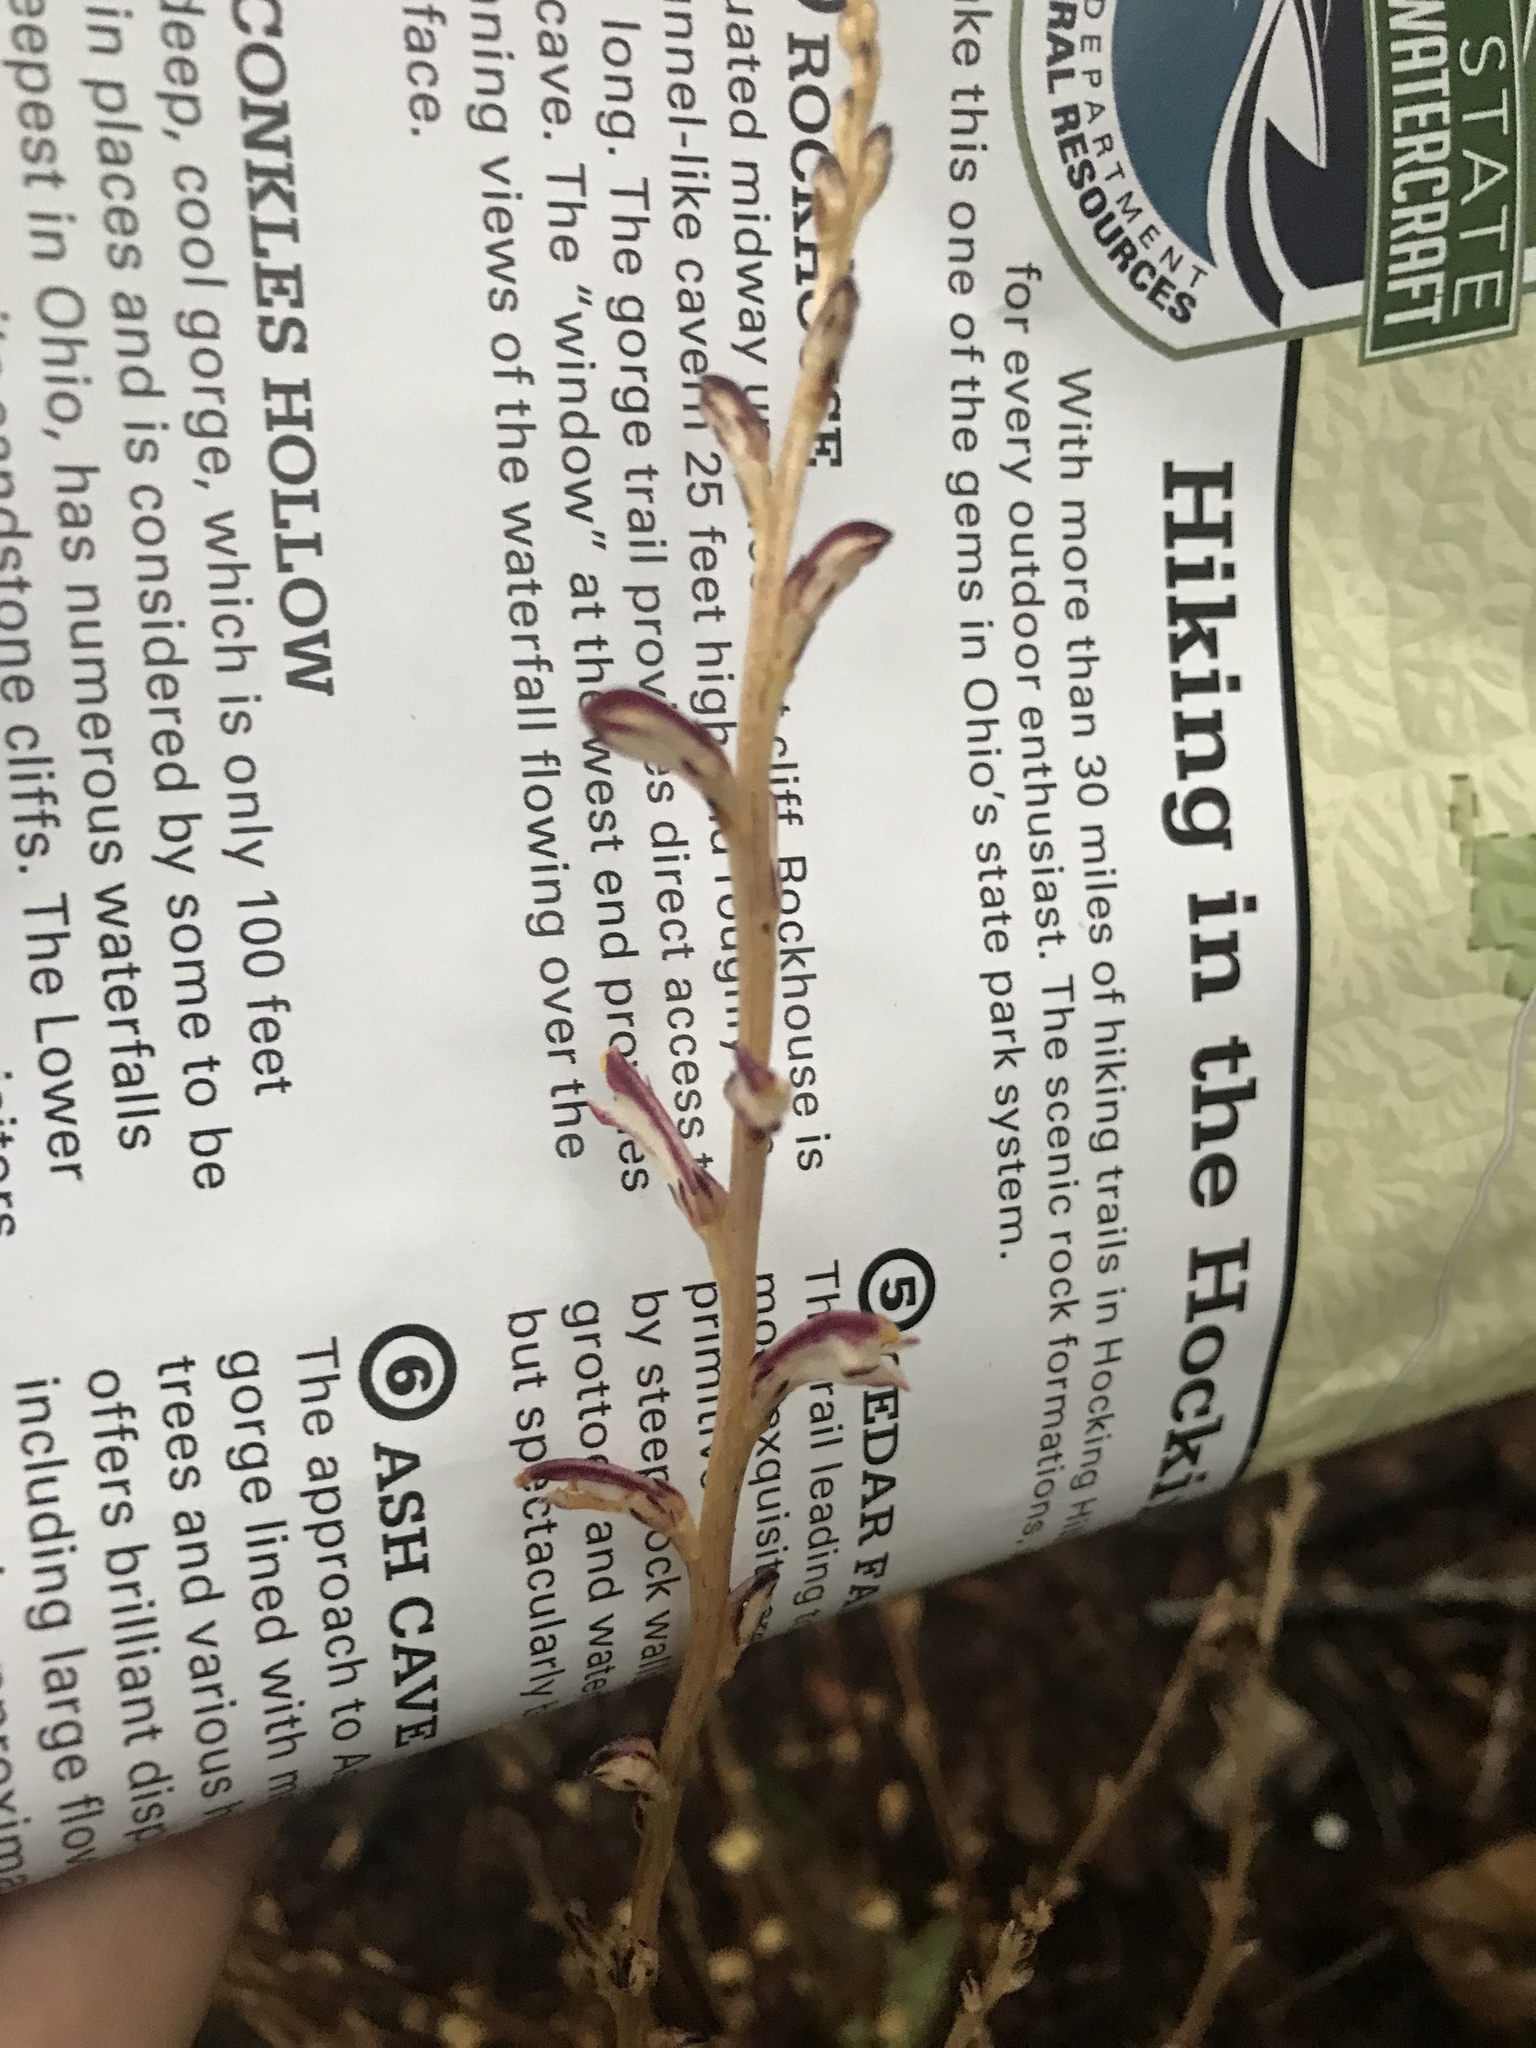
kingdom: Plantae
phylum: Tracheophyta
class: Magnoliopsida
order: Lamiales
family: Orobanchaceae
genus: Epifagus
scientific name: Epifagus virginiana
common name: Beechdrops
